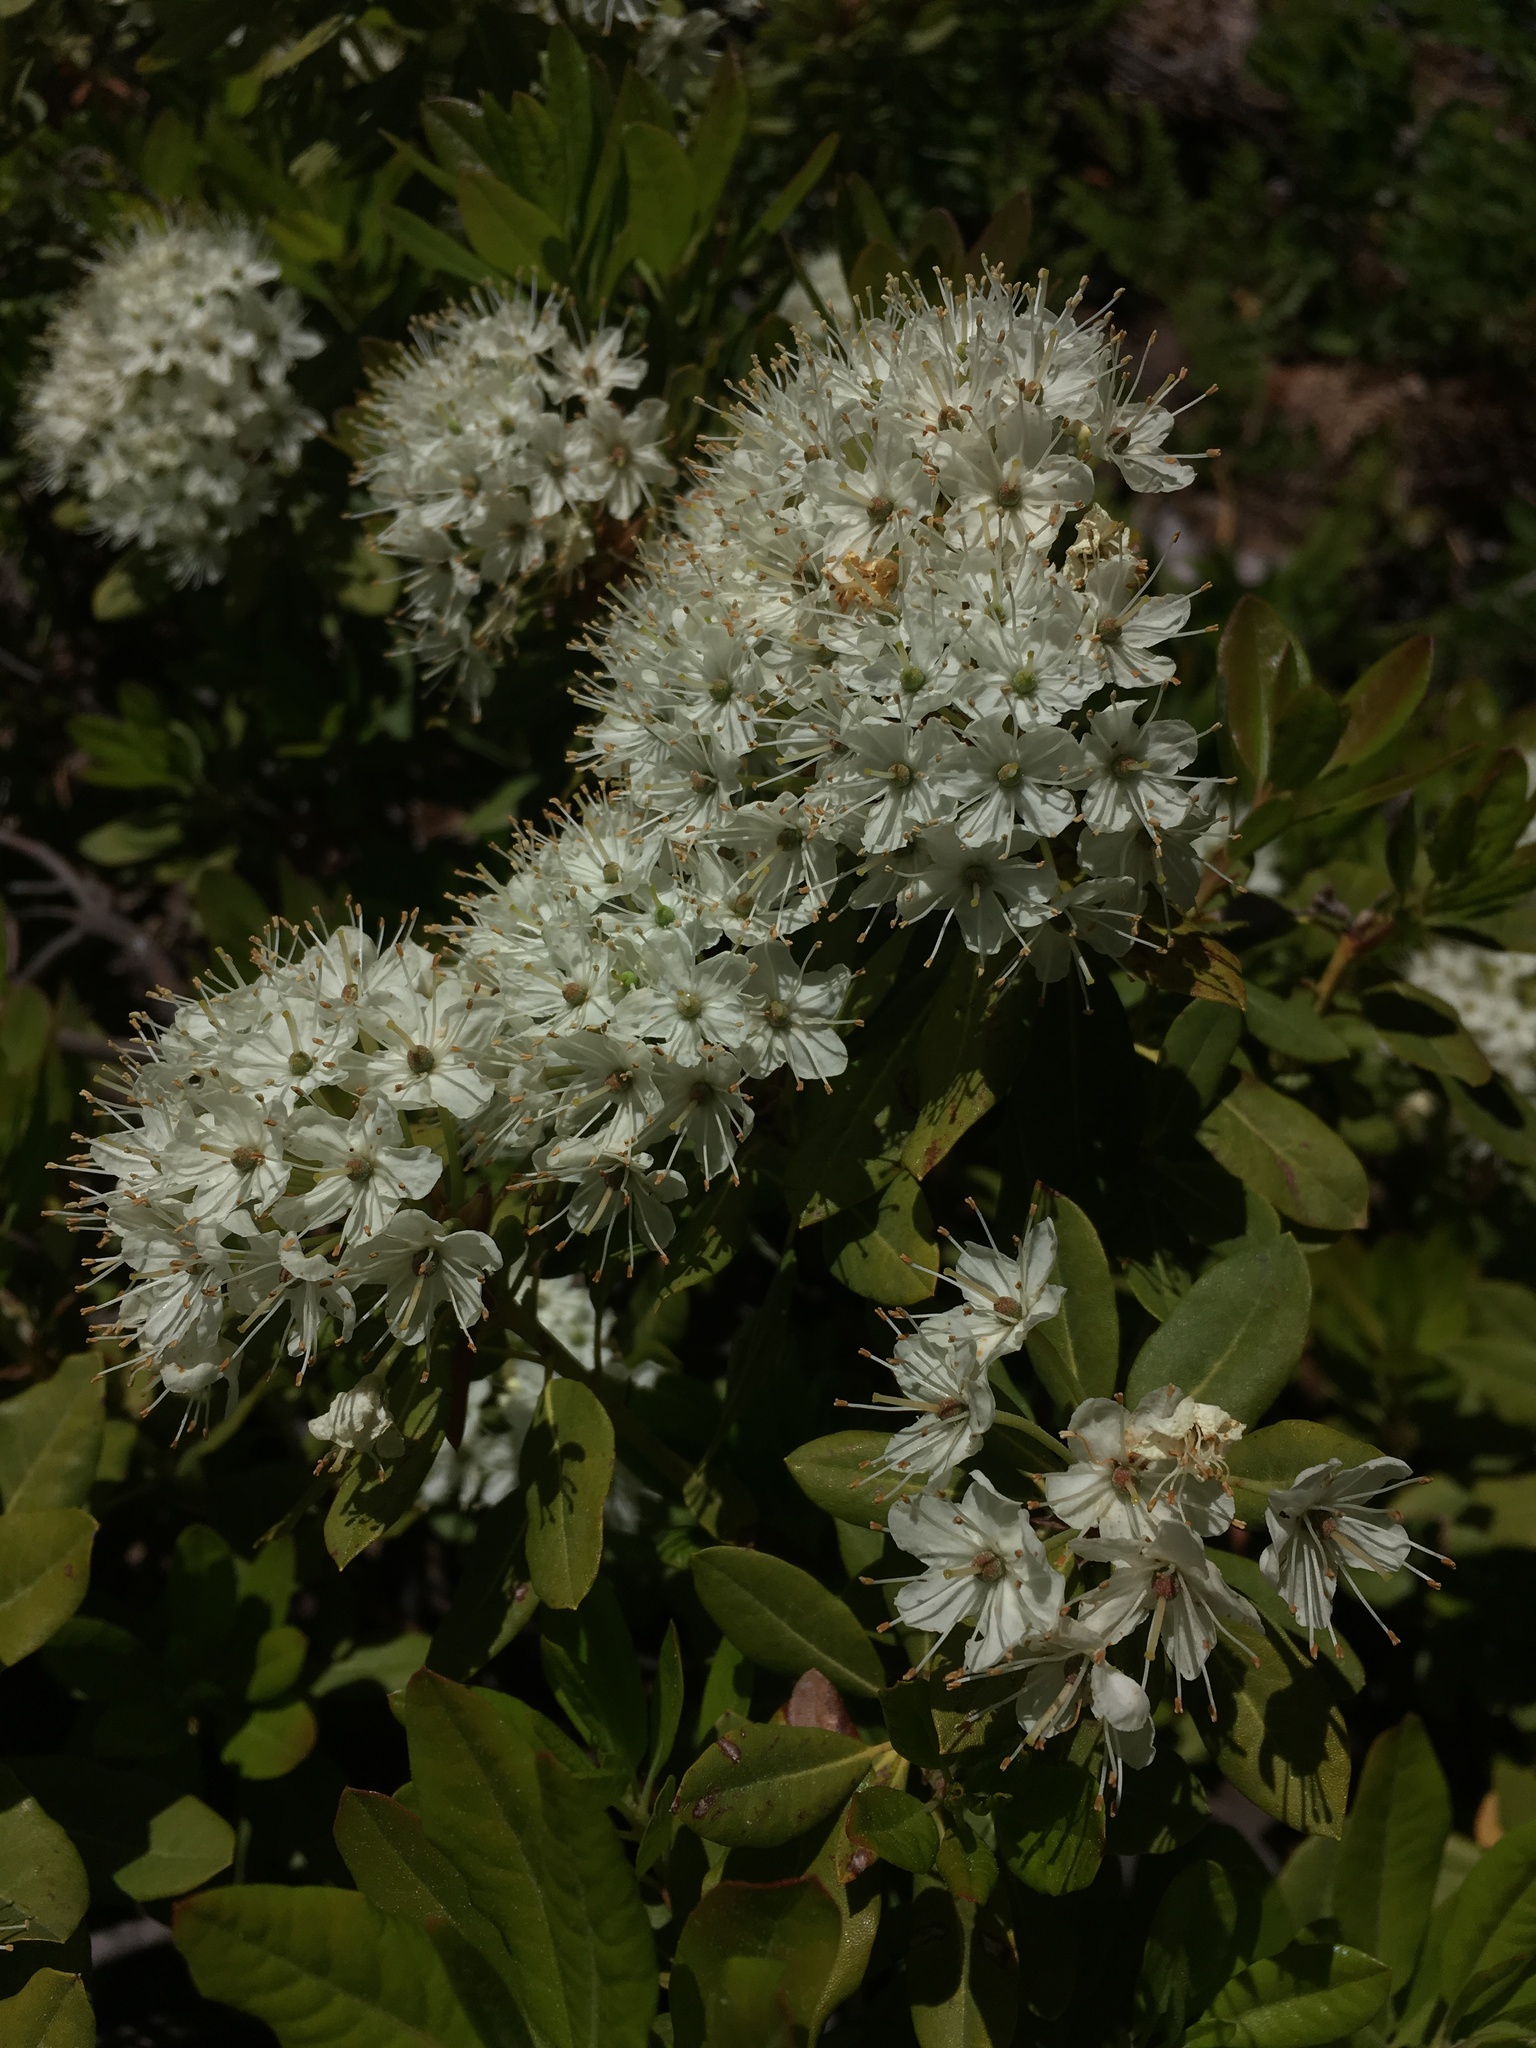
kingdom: Plantae
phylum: Tracheophyta
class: Magnoliopsida
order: Ericales
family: Ericaceae
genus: Rhododendron
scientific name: Rhododendron columbianum
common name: Western labrador tea
